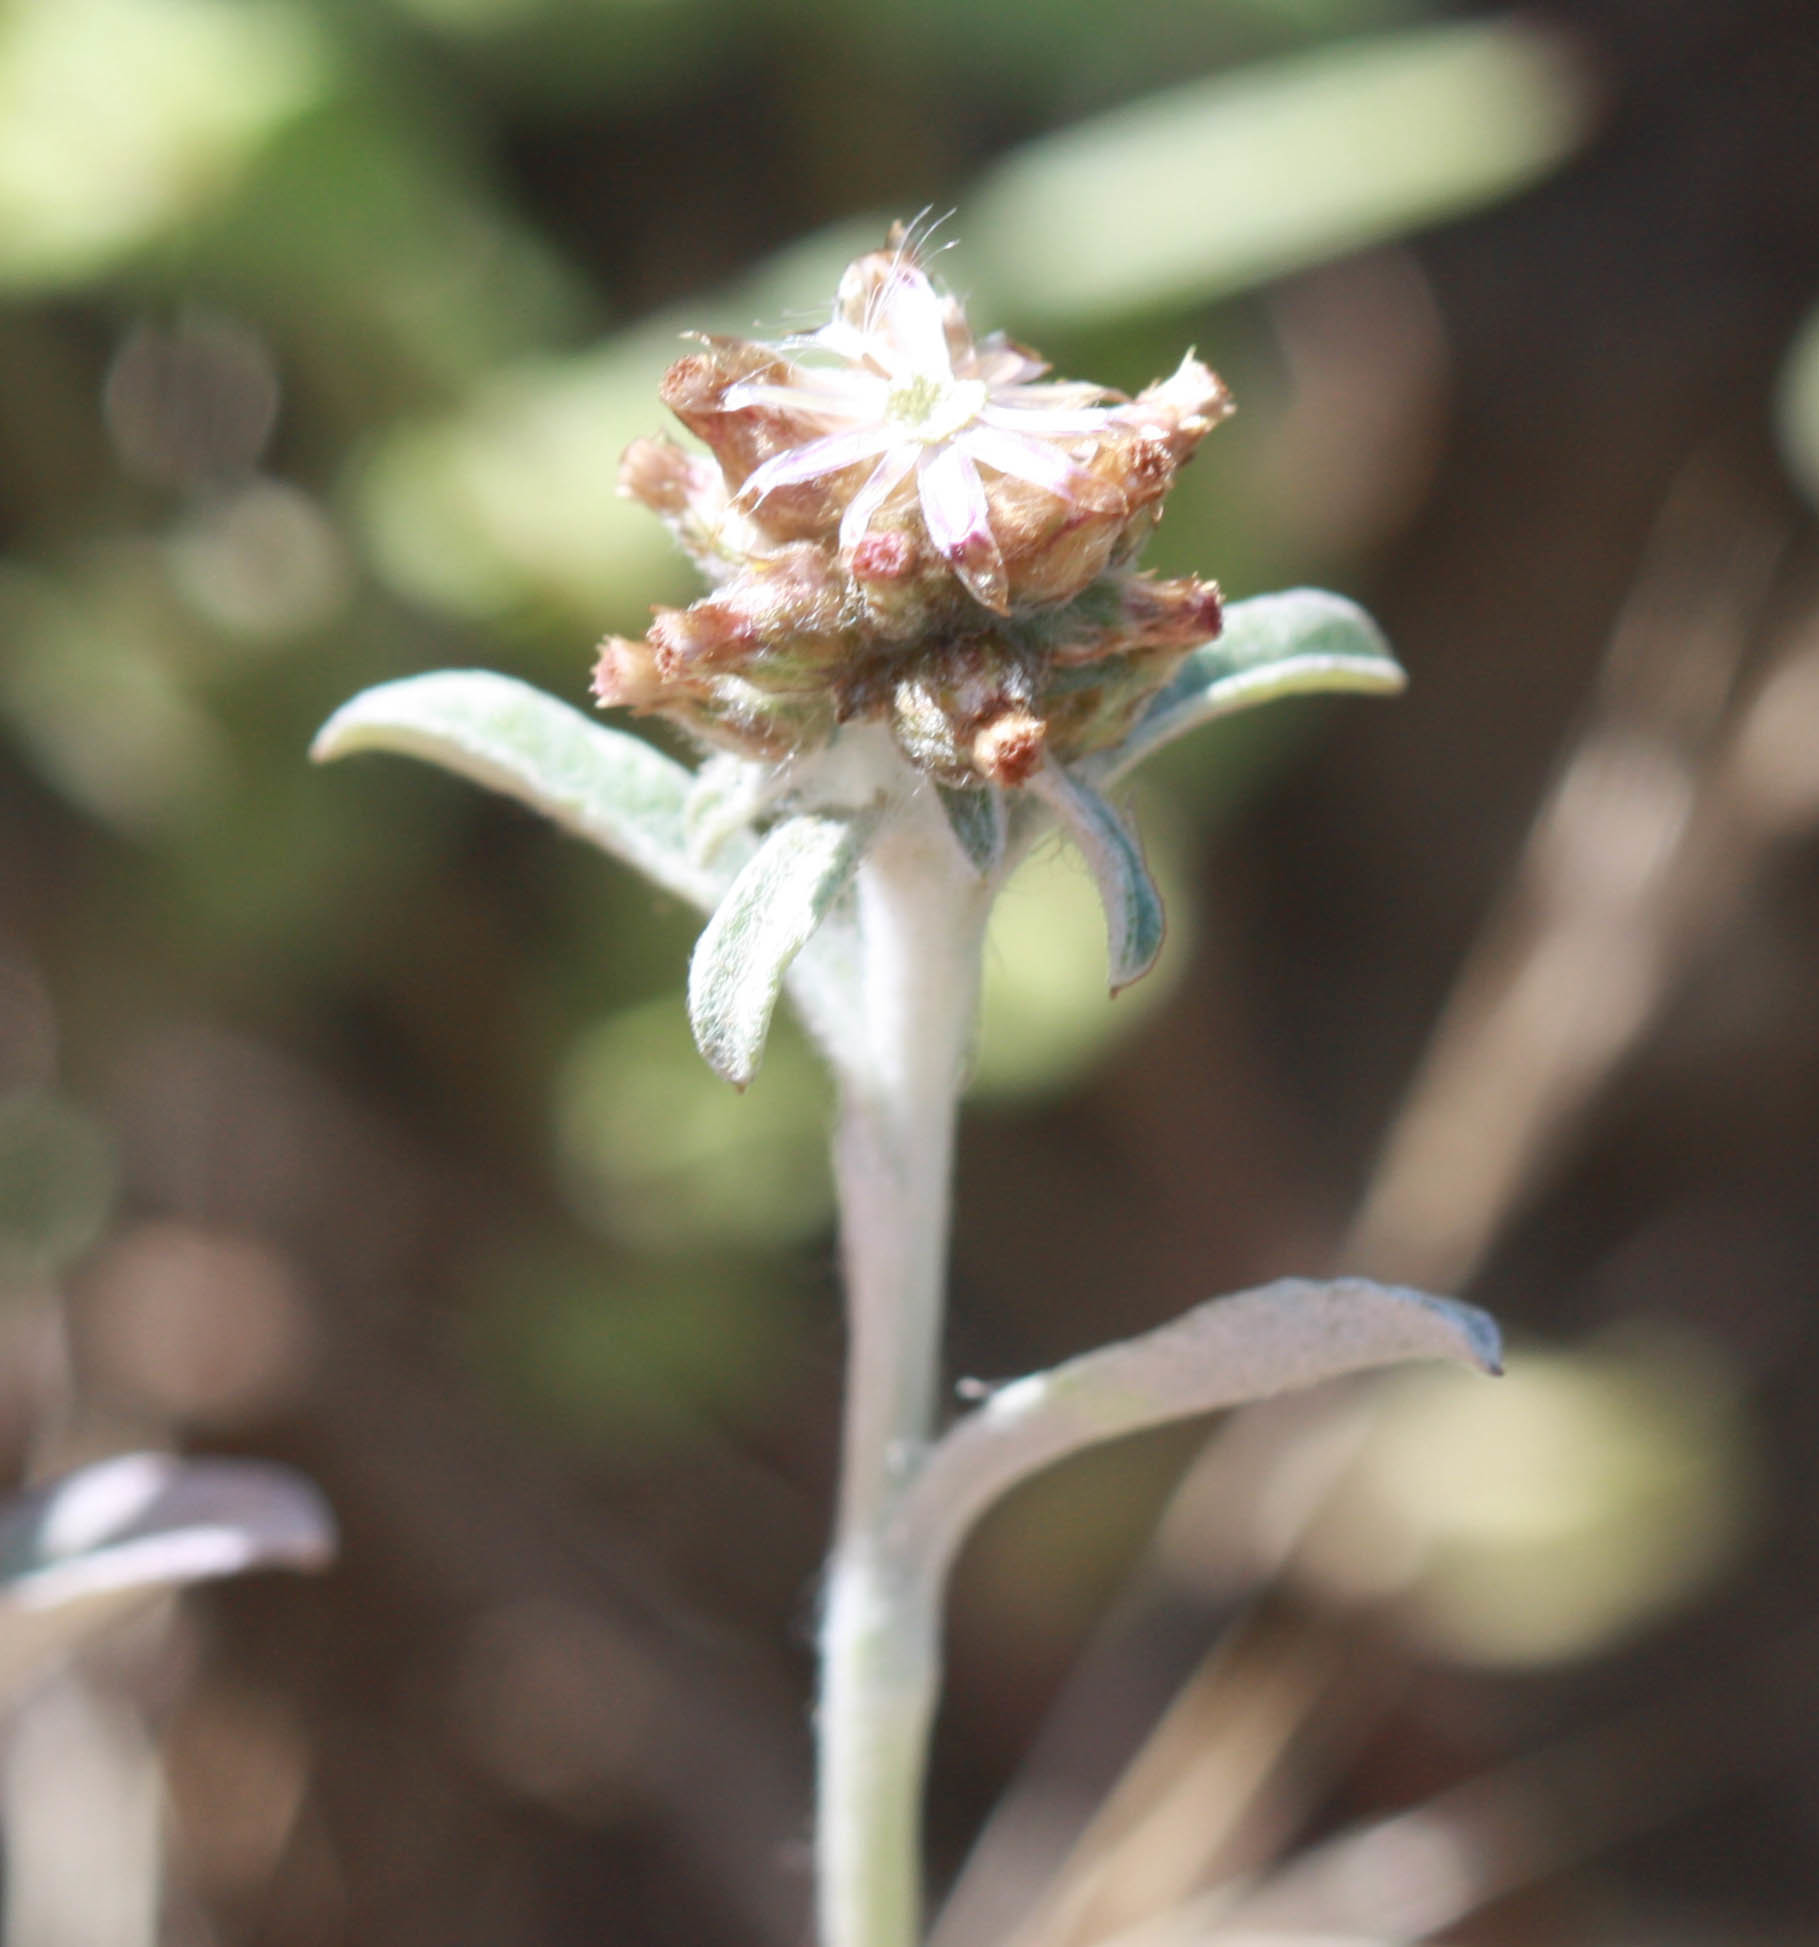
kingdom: Plantae
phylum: Tracheophyta
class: Magnoliopsida
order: Asterales
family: Asteraceae
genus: Gamochaeta
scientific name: Gamochaeta ustulata
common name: Pacific cudweed
